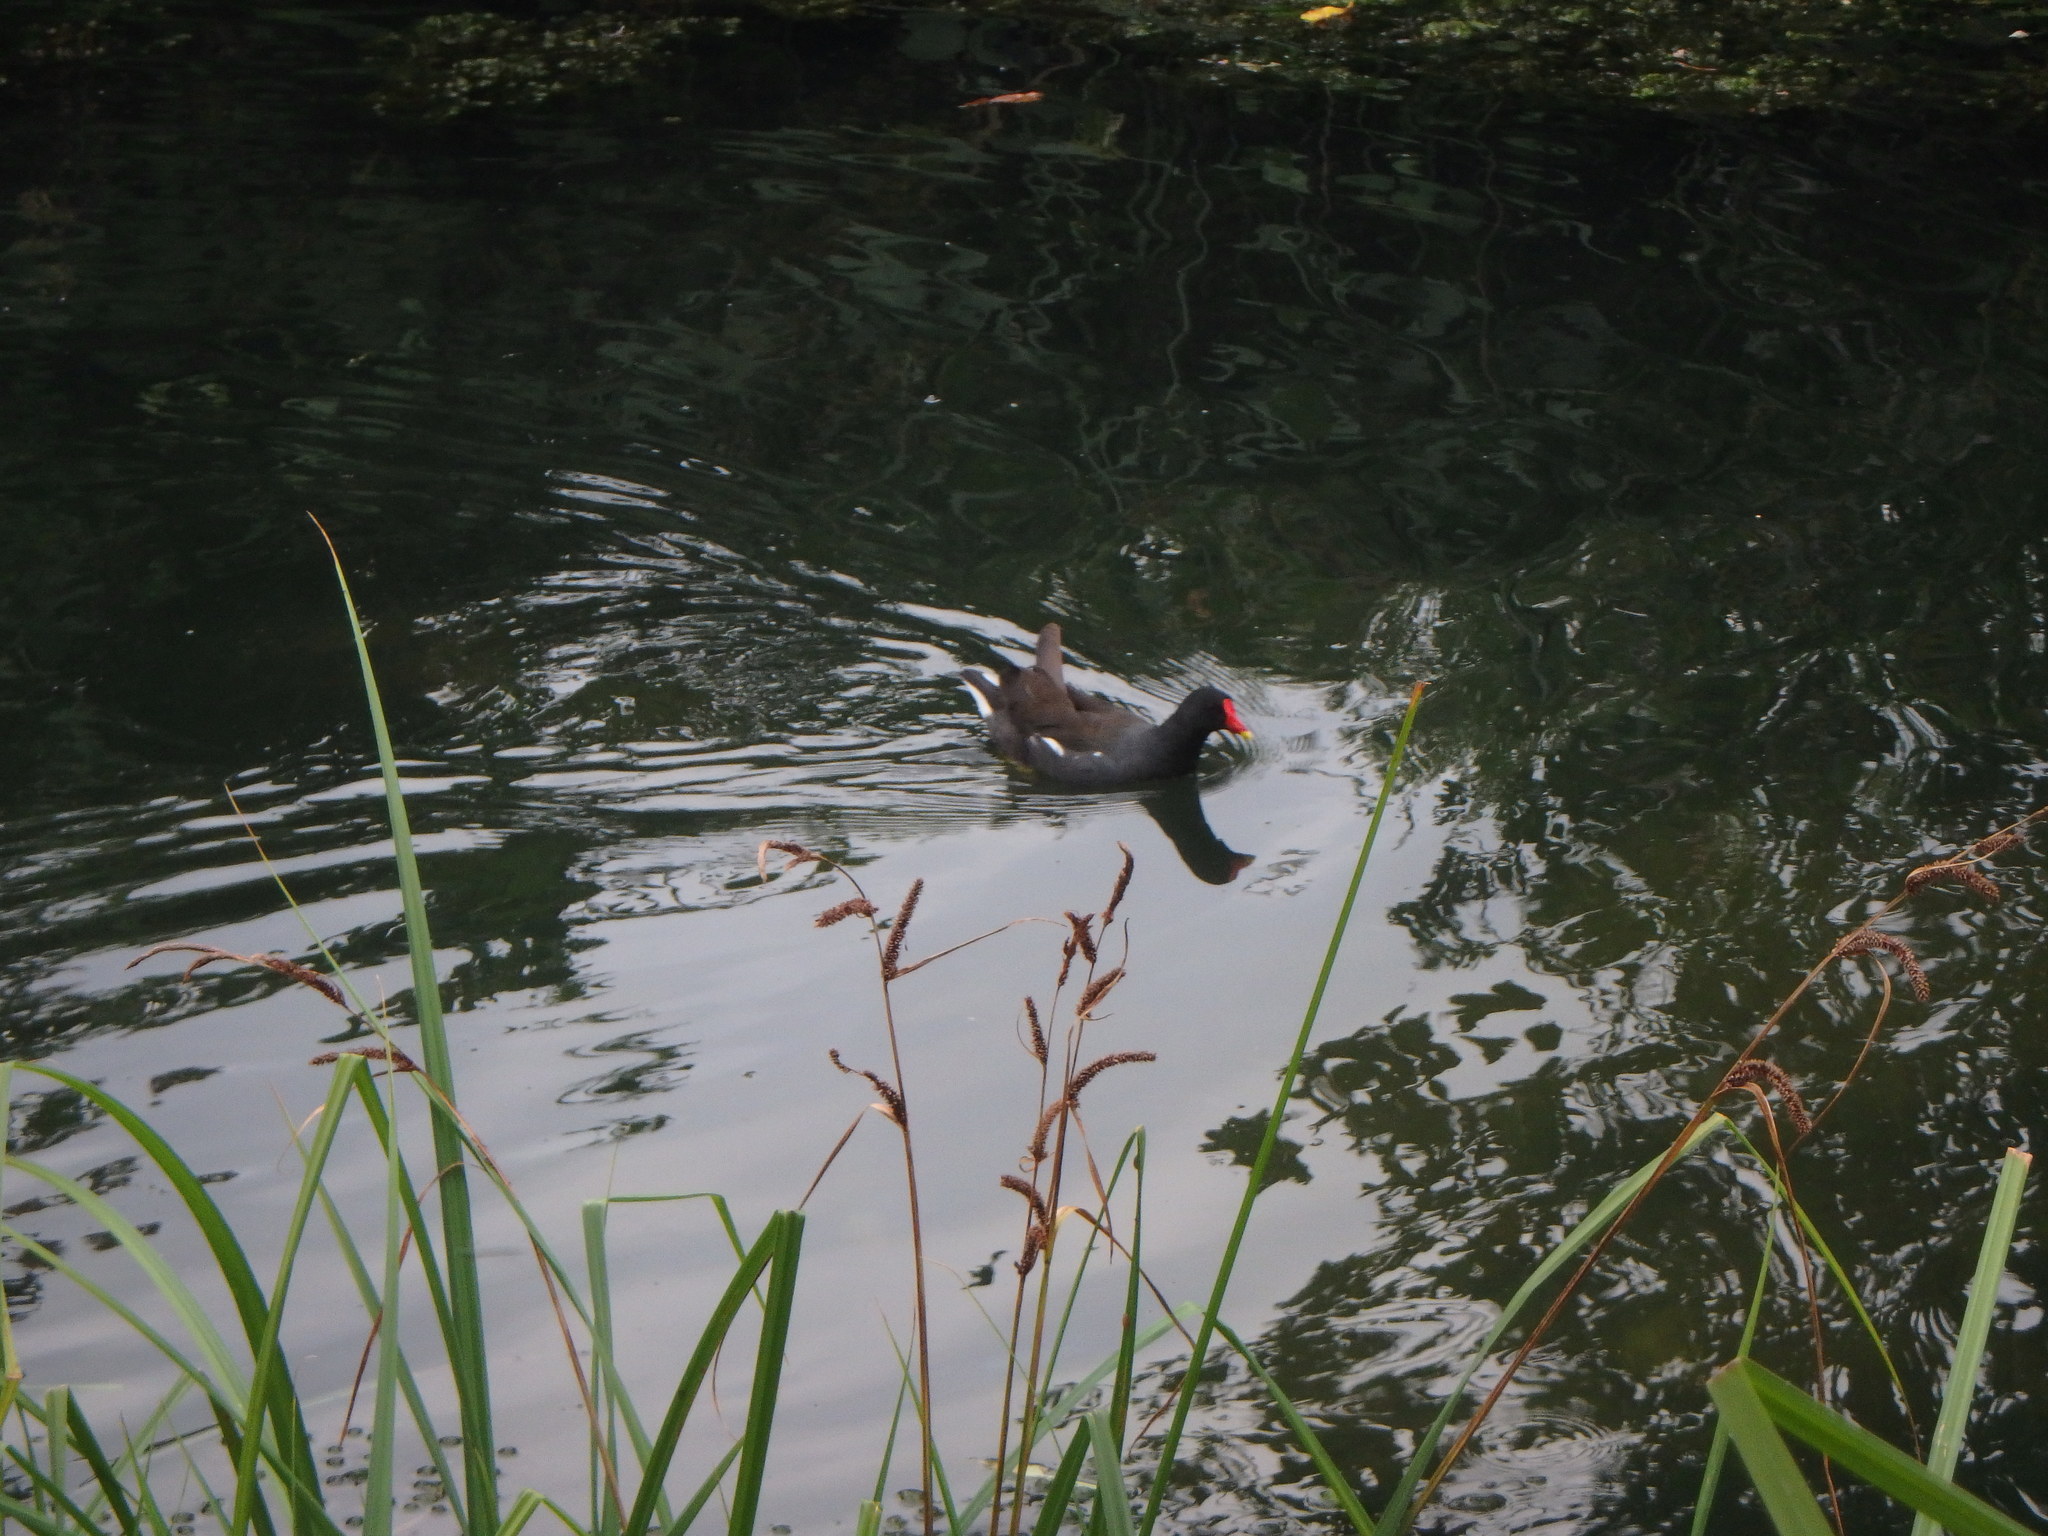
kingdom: Animalia
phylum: Chordata
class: Aves
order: Gruiformes
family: Rallidae
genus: Gallinula
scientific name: Gallinula chloropus
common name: Common moorhen
